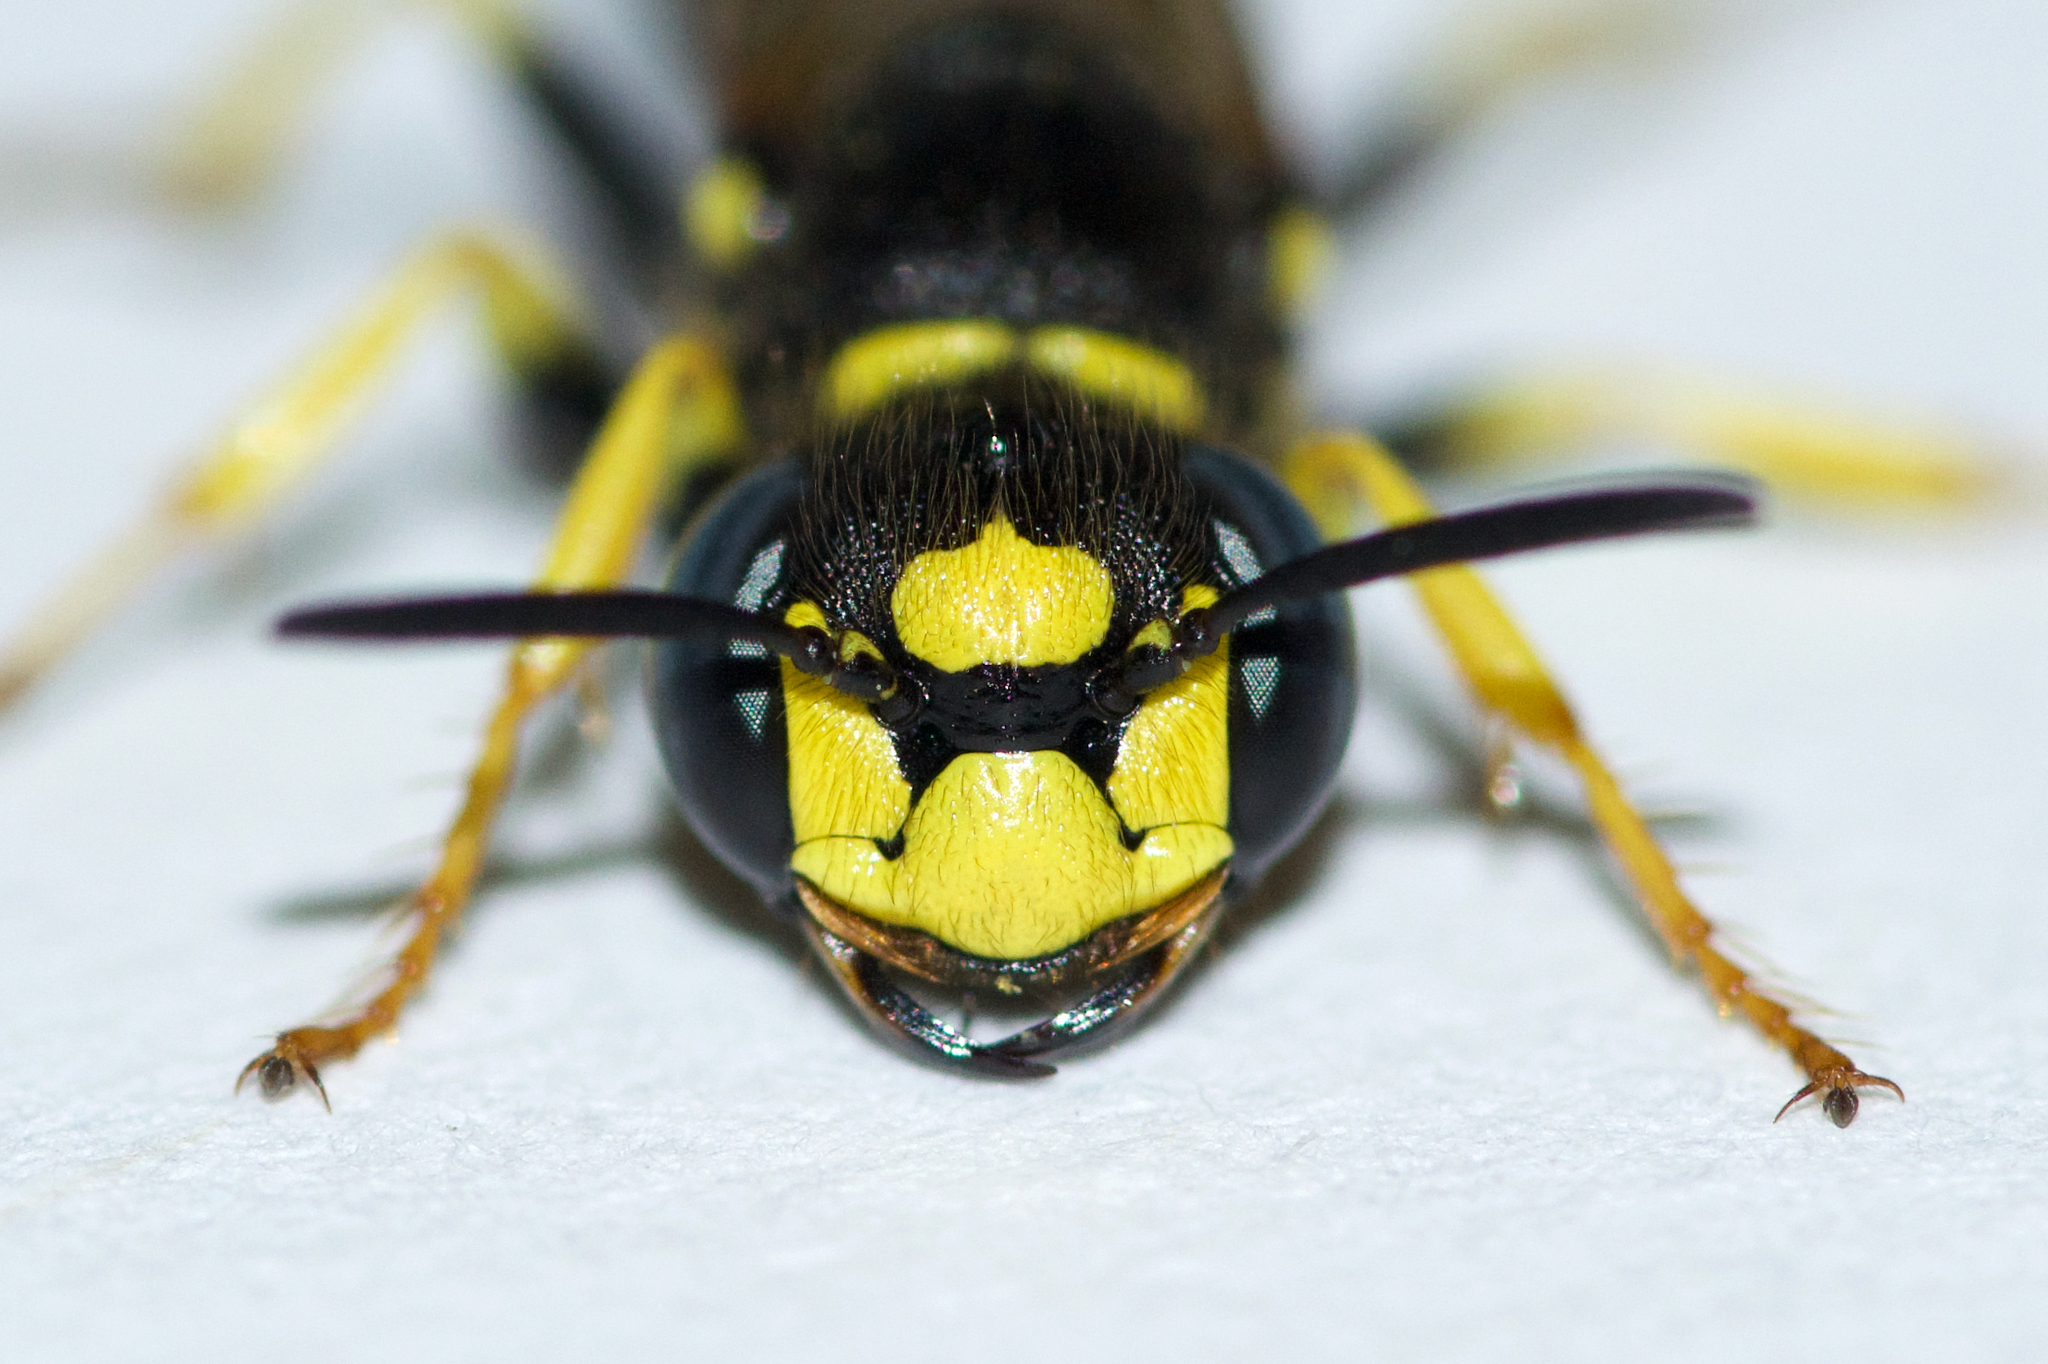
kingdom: Animalia
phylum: Arthropoda
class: Insecta
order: Hymenoptera
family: Crabronidae
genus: Philanthus
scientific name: Philanthus solivagus
